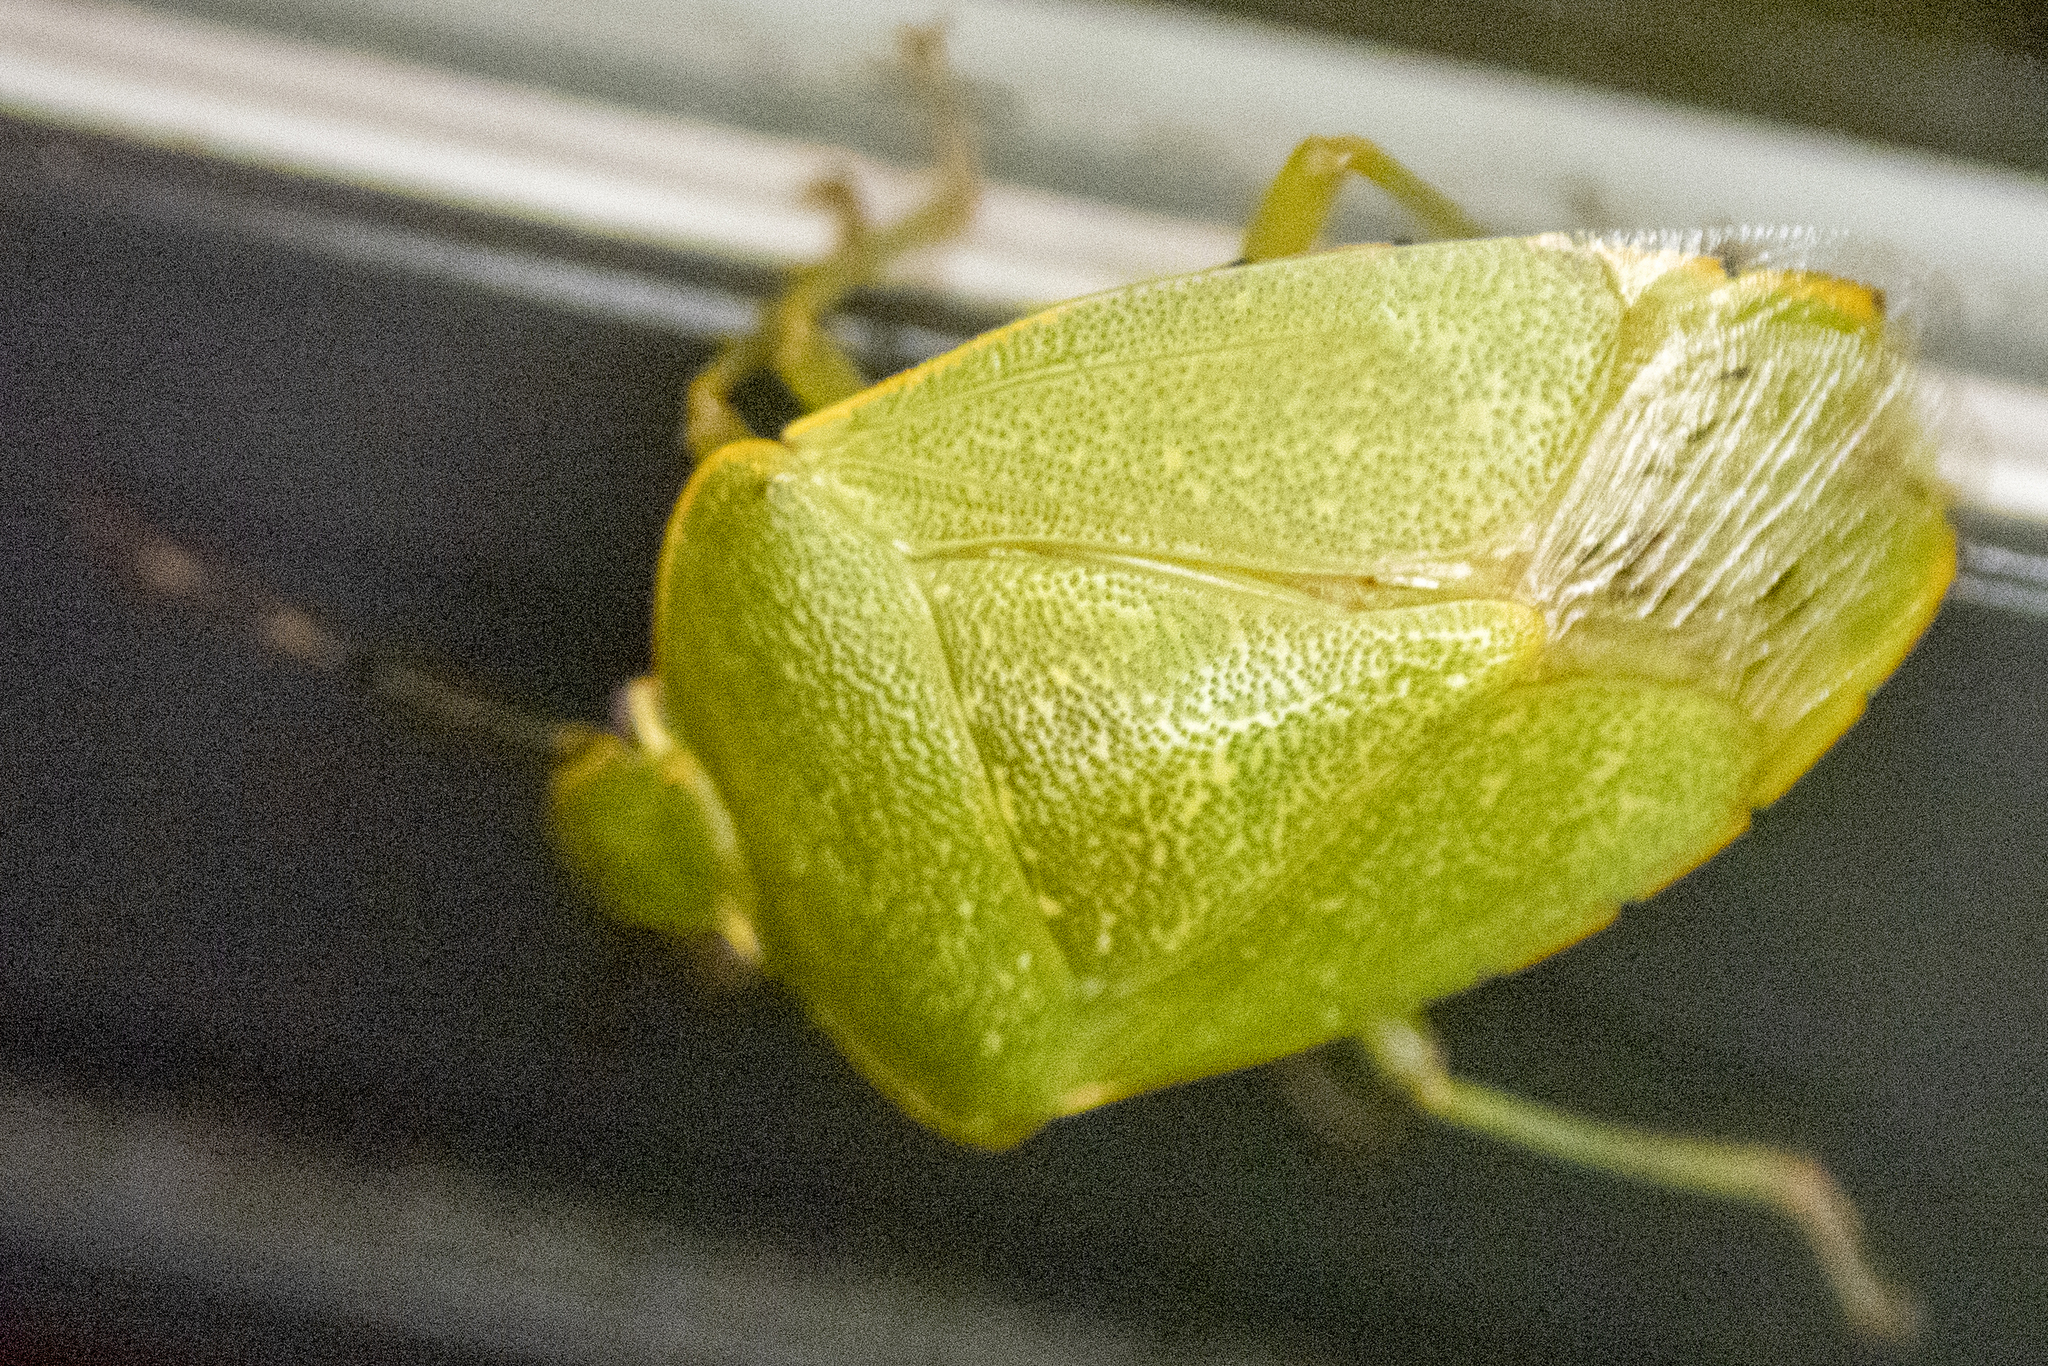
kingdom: Animalia
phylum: Arthropoda
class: Insecta
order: Hemiptera
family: Pentatomidae
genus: Chinavia
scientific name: Chinavia hilaris
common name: Green stink bug
